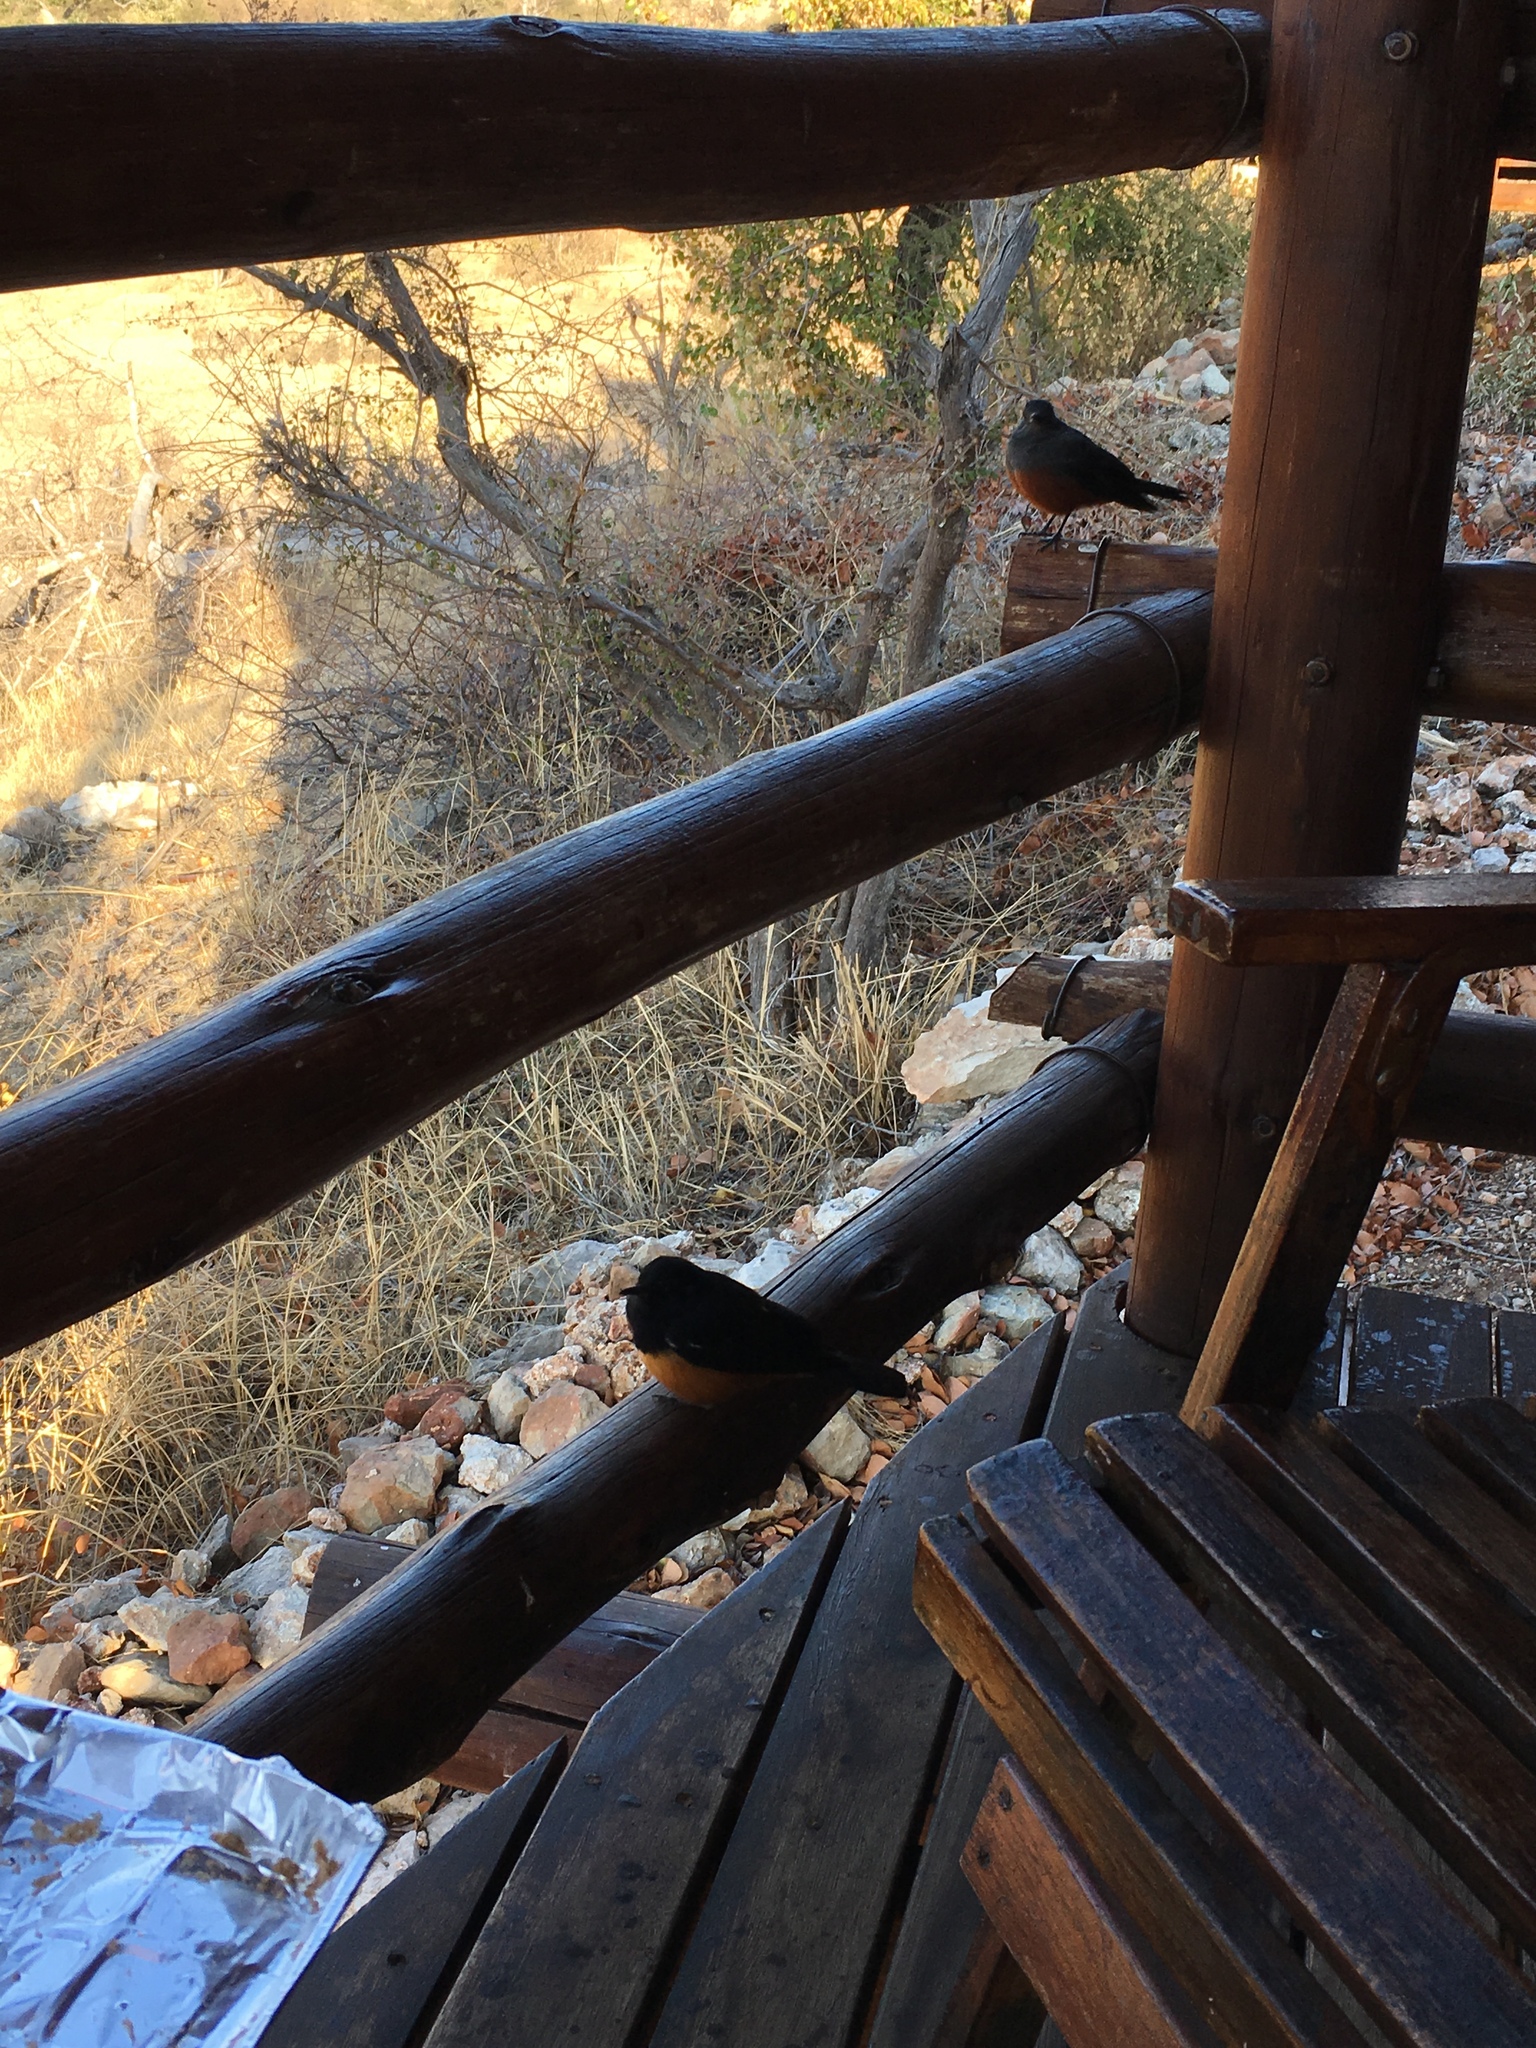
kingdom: Animalia
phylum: Chordata
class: Aves
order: Passeriformes
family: Muscicapidae
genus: Thamnolaea
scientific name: Thamnolaea cinnamomeiventris
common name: Mocking cliff chat
